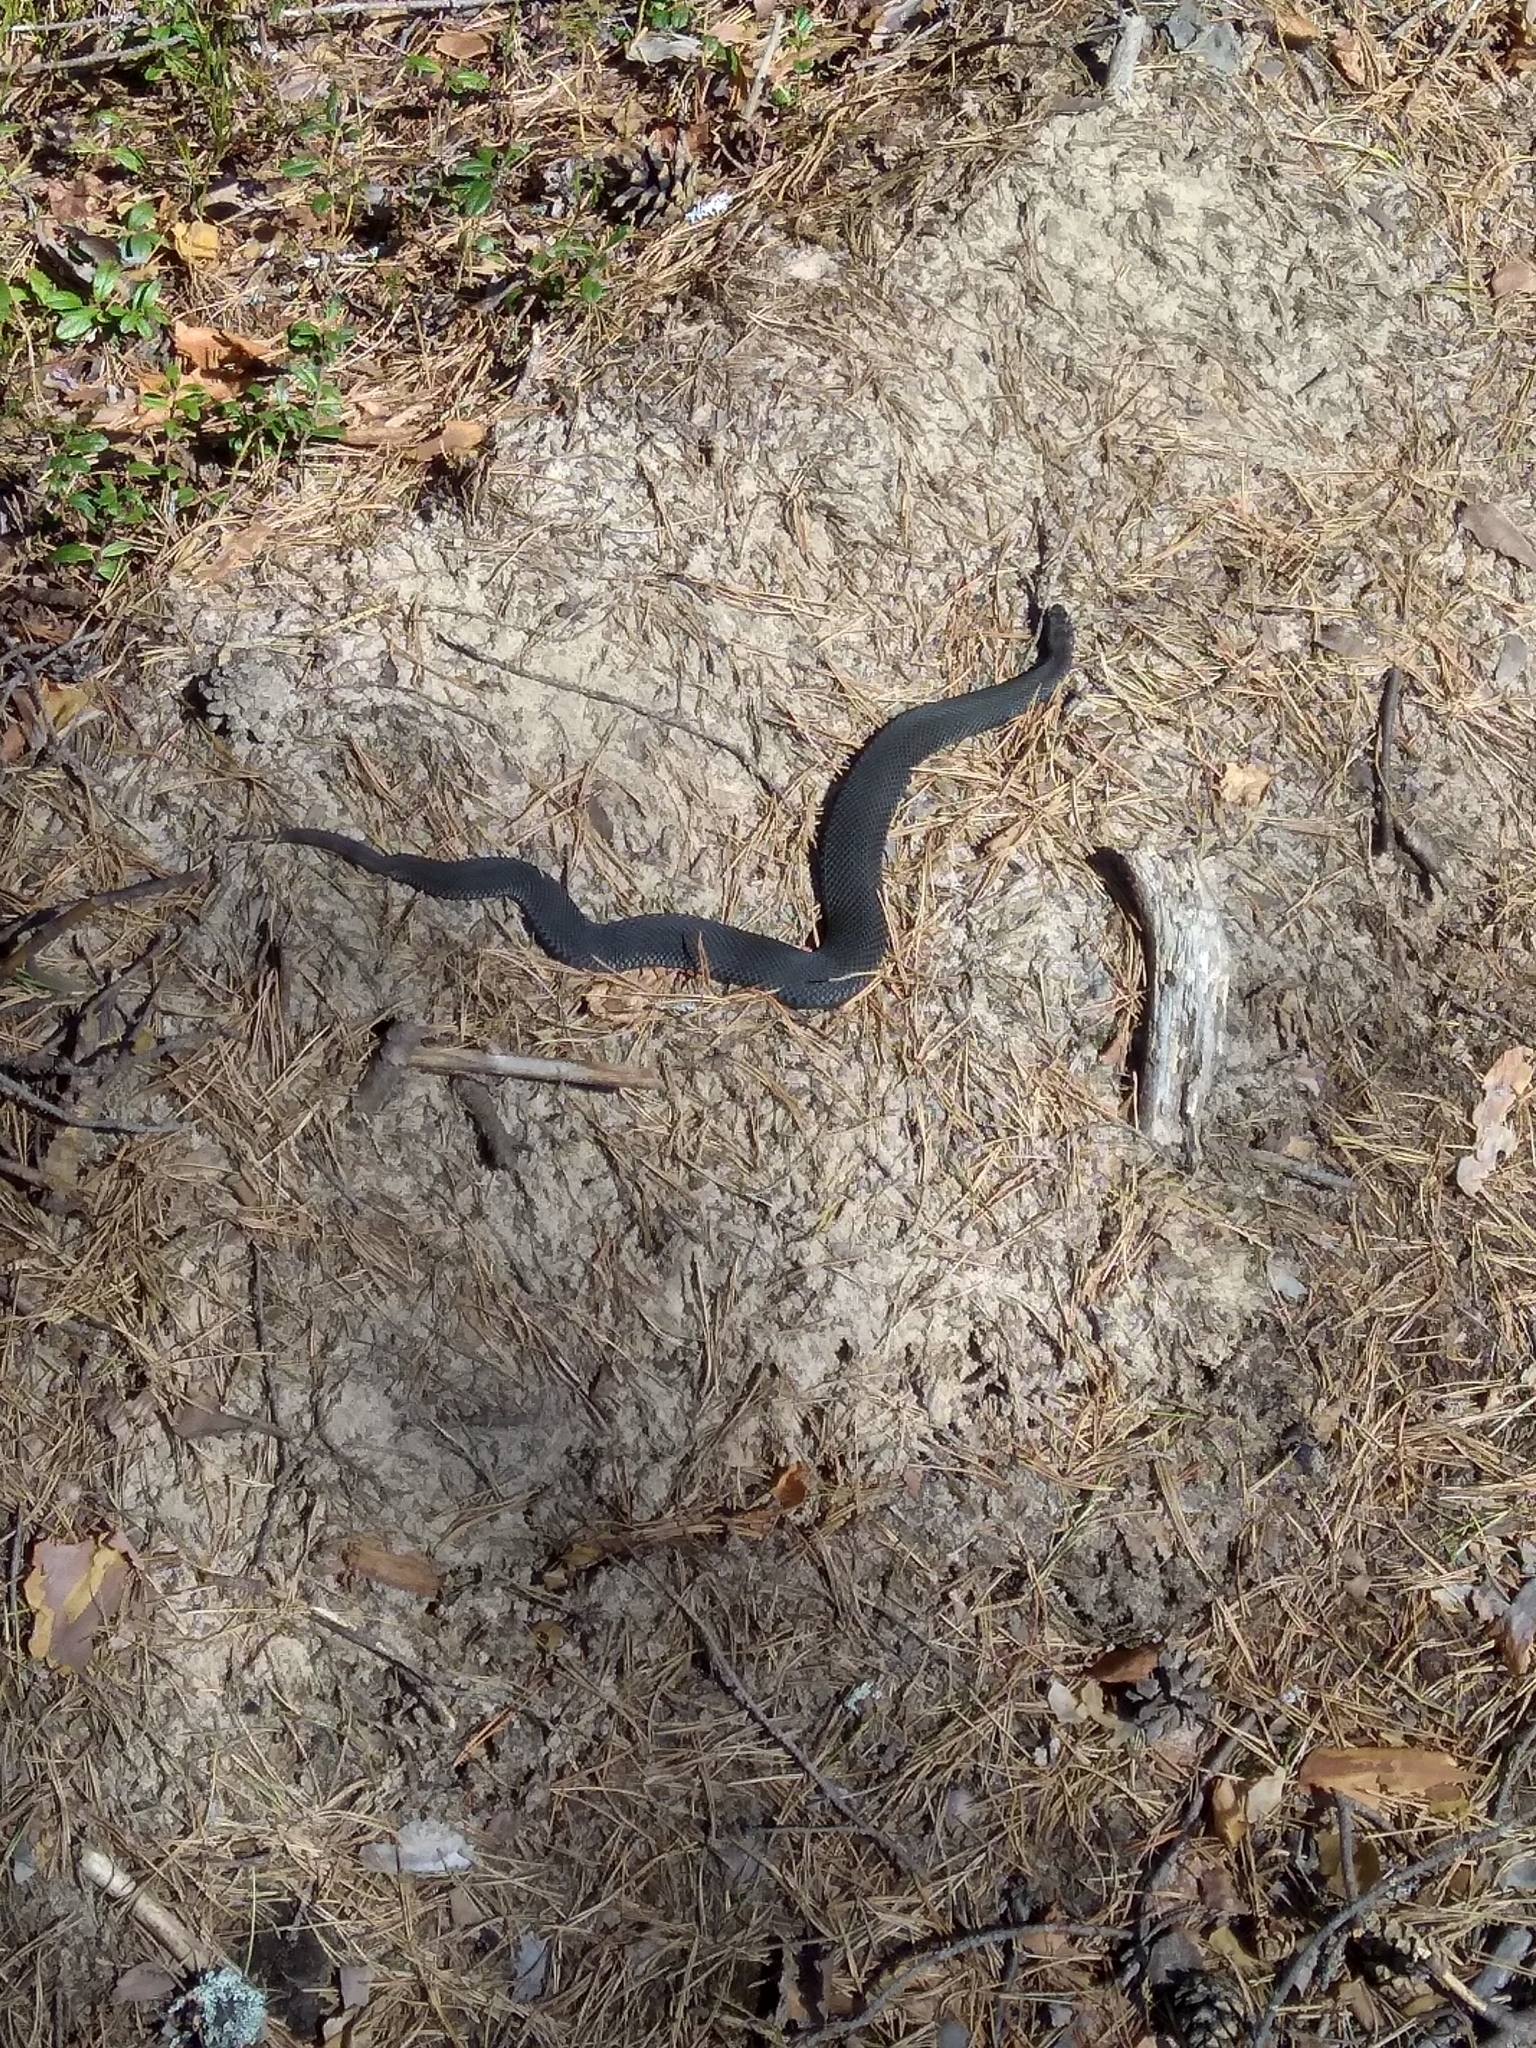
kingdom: Animalia
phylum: Chordata
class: Squamata
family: Viperidae
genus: Vipera
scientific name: Vipera berus
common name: Adder
